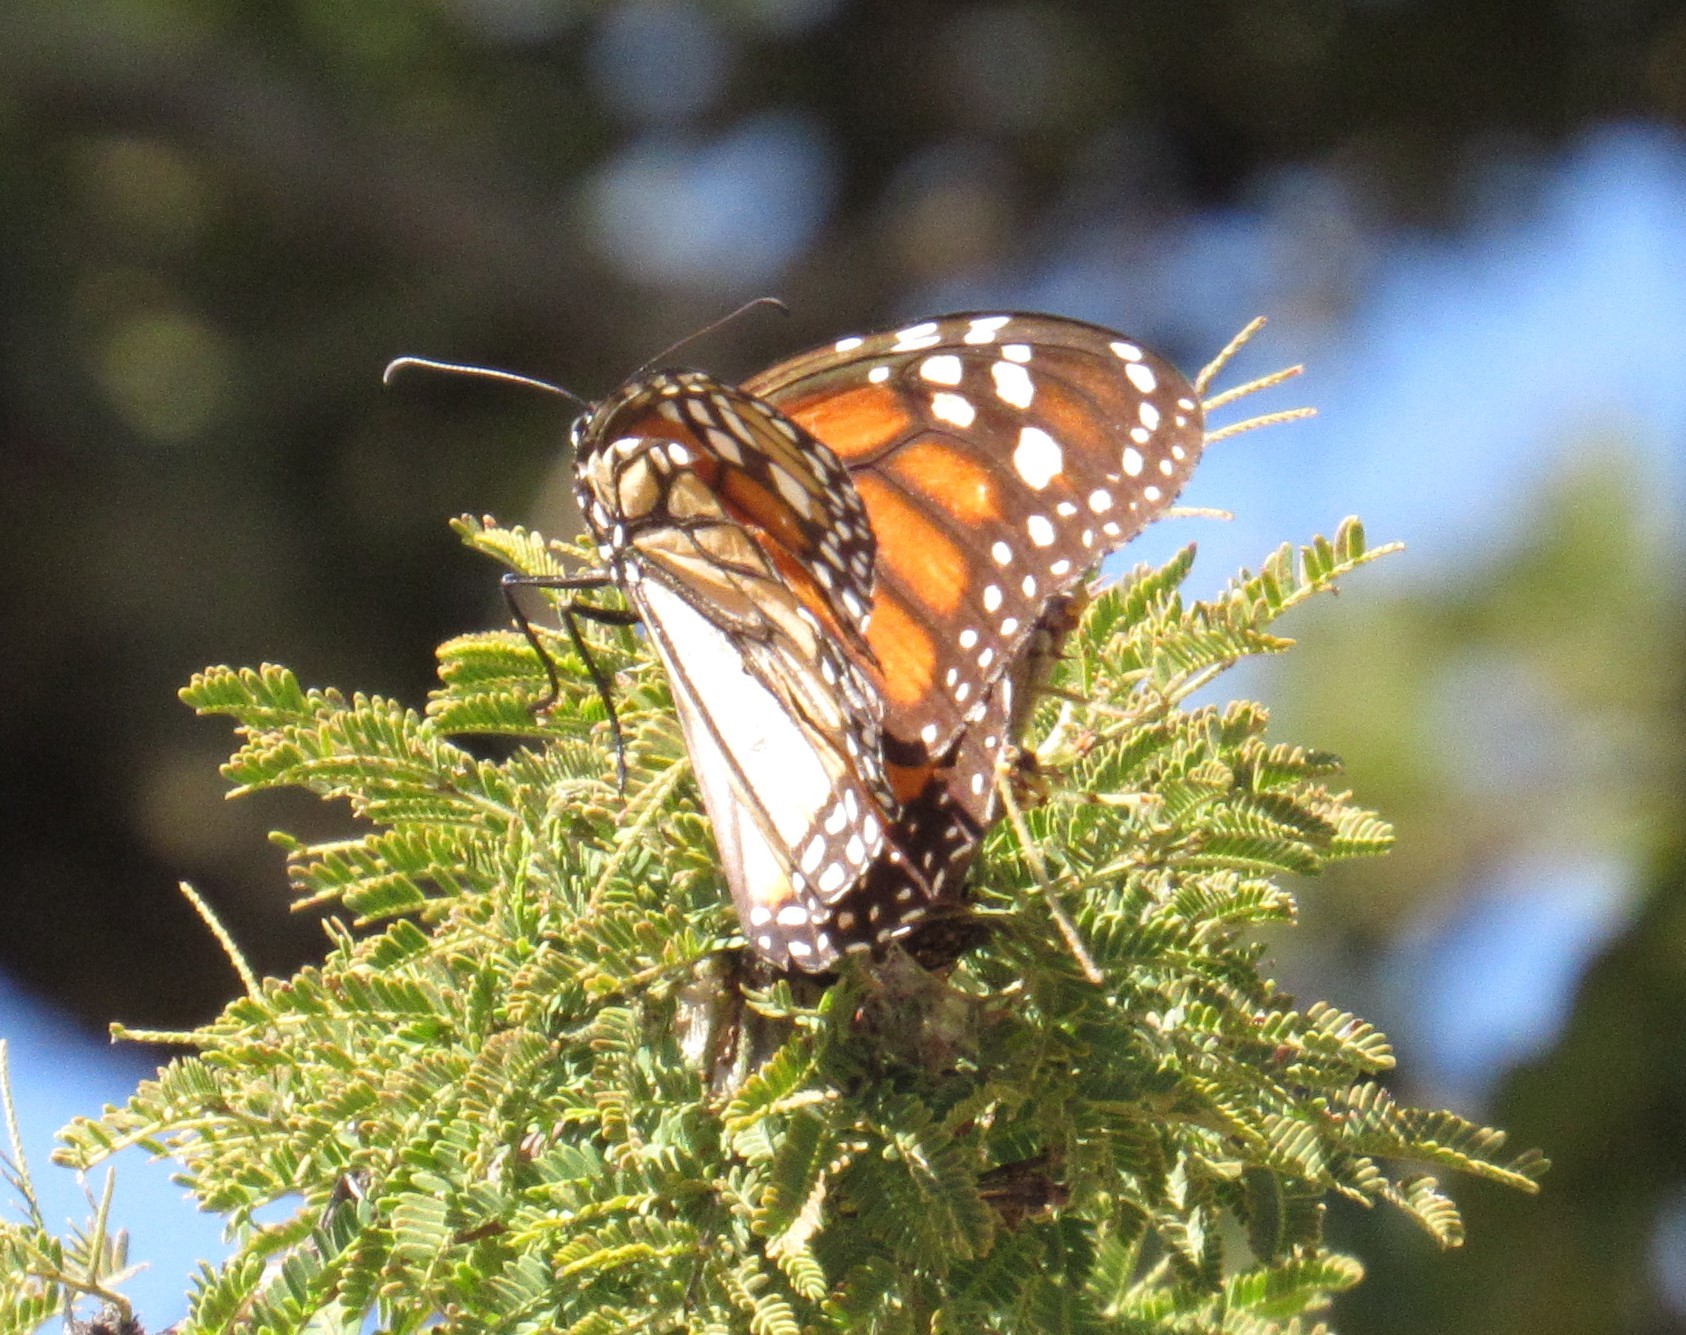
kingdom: Animalia
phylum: Arthropoda
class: Insecta
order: Lepidoptera
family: Nymphalidae
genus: Danaus
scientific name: Danaus plexippus
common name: Monarch
